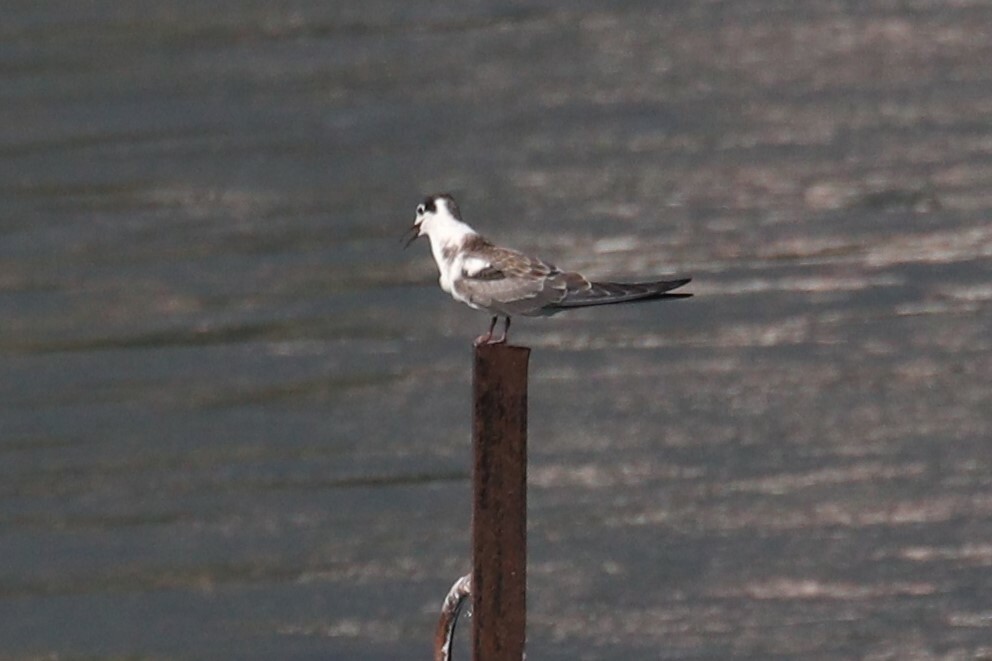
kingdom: Animalia
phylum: Chordata
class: Aves
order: Charadriiformes
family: Laridae
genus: Chlidonias
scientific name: Chlidonias niger
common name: Black tern
